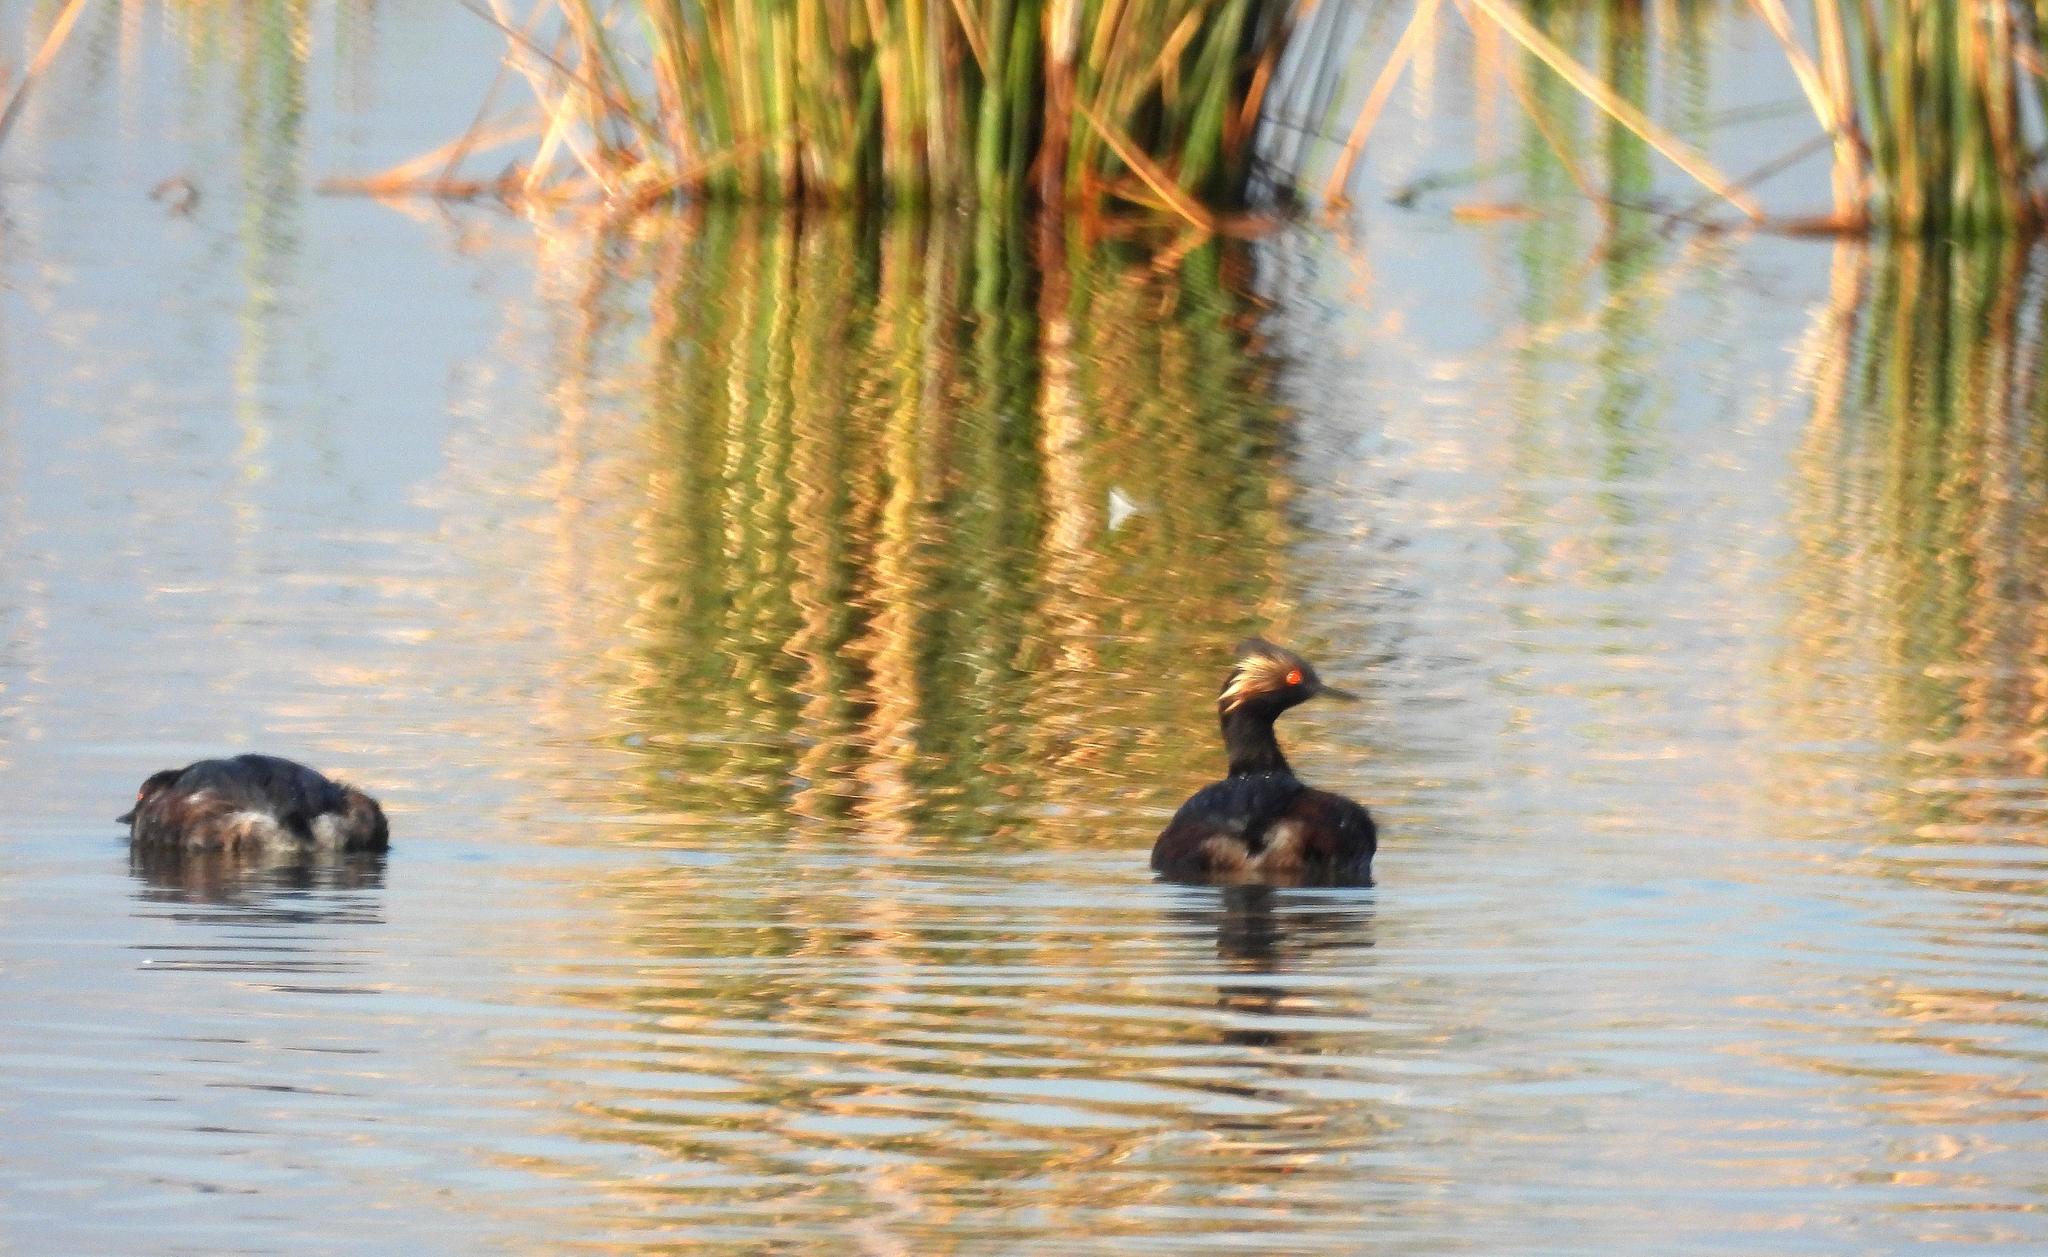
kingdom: Animalia
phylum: Chordata
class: Aves
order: Podicipediformes
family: Podicipedidae
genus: Podiceps
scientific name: Podiceps nigricollis
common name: Black-necked grebe
